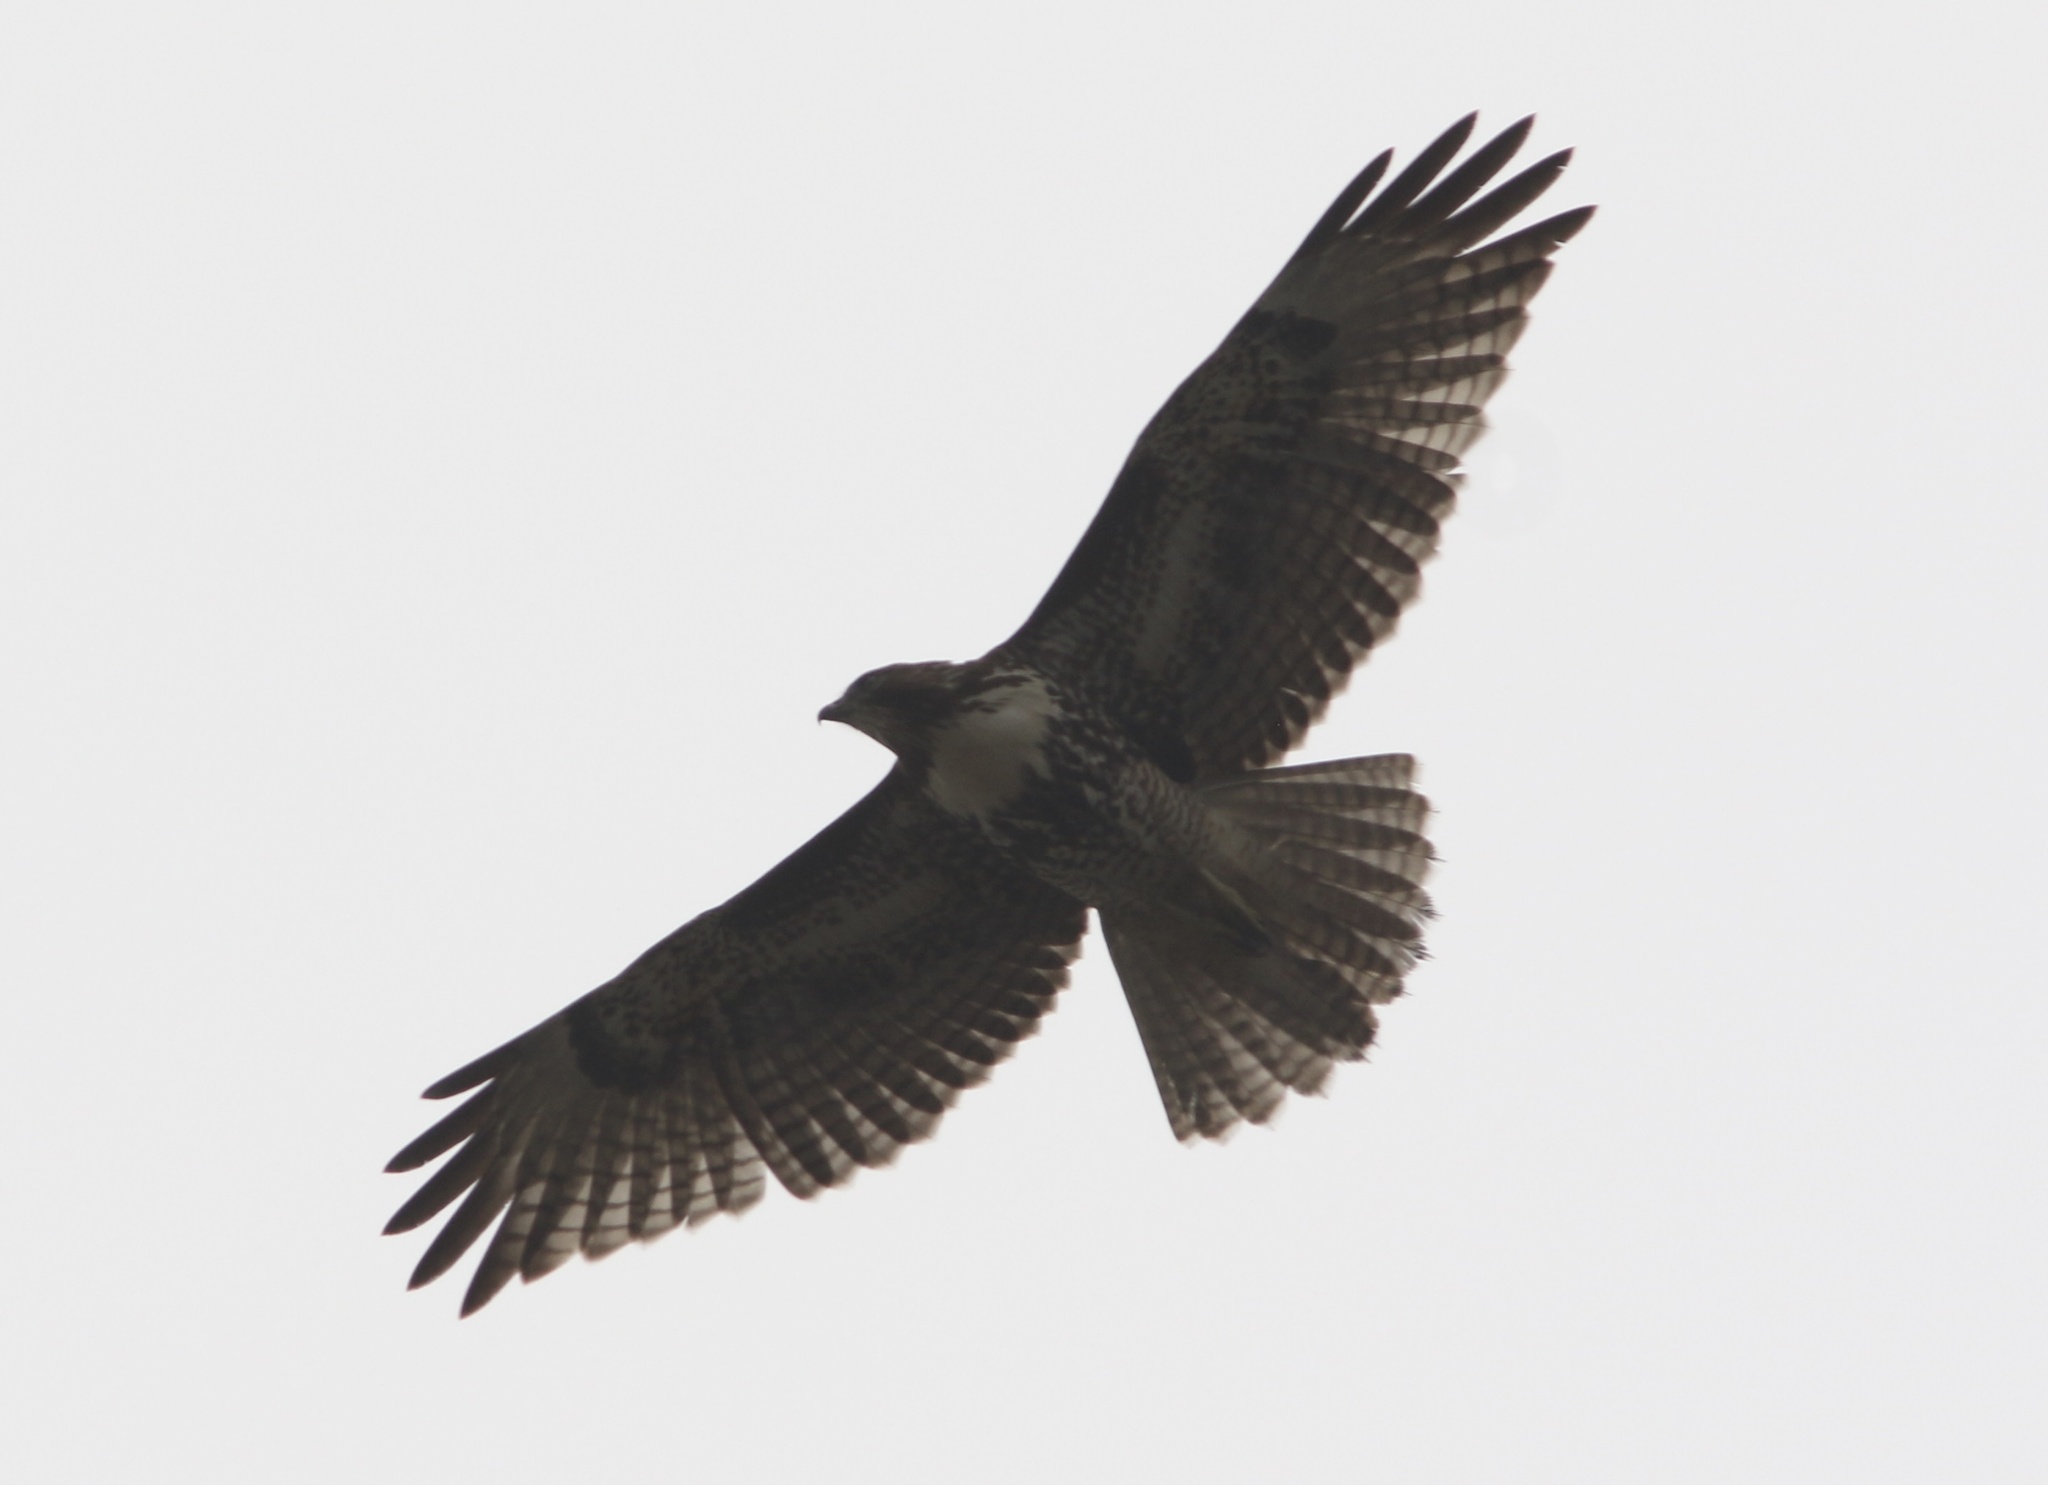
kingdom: Animalia
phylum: Chordata
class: Aves
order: Accipitriformes
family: Accipitridae
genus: Buteo
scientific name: Buteo jamaicensis
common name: Red-tailed hawk
